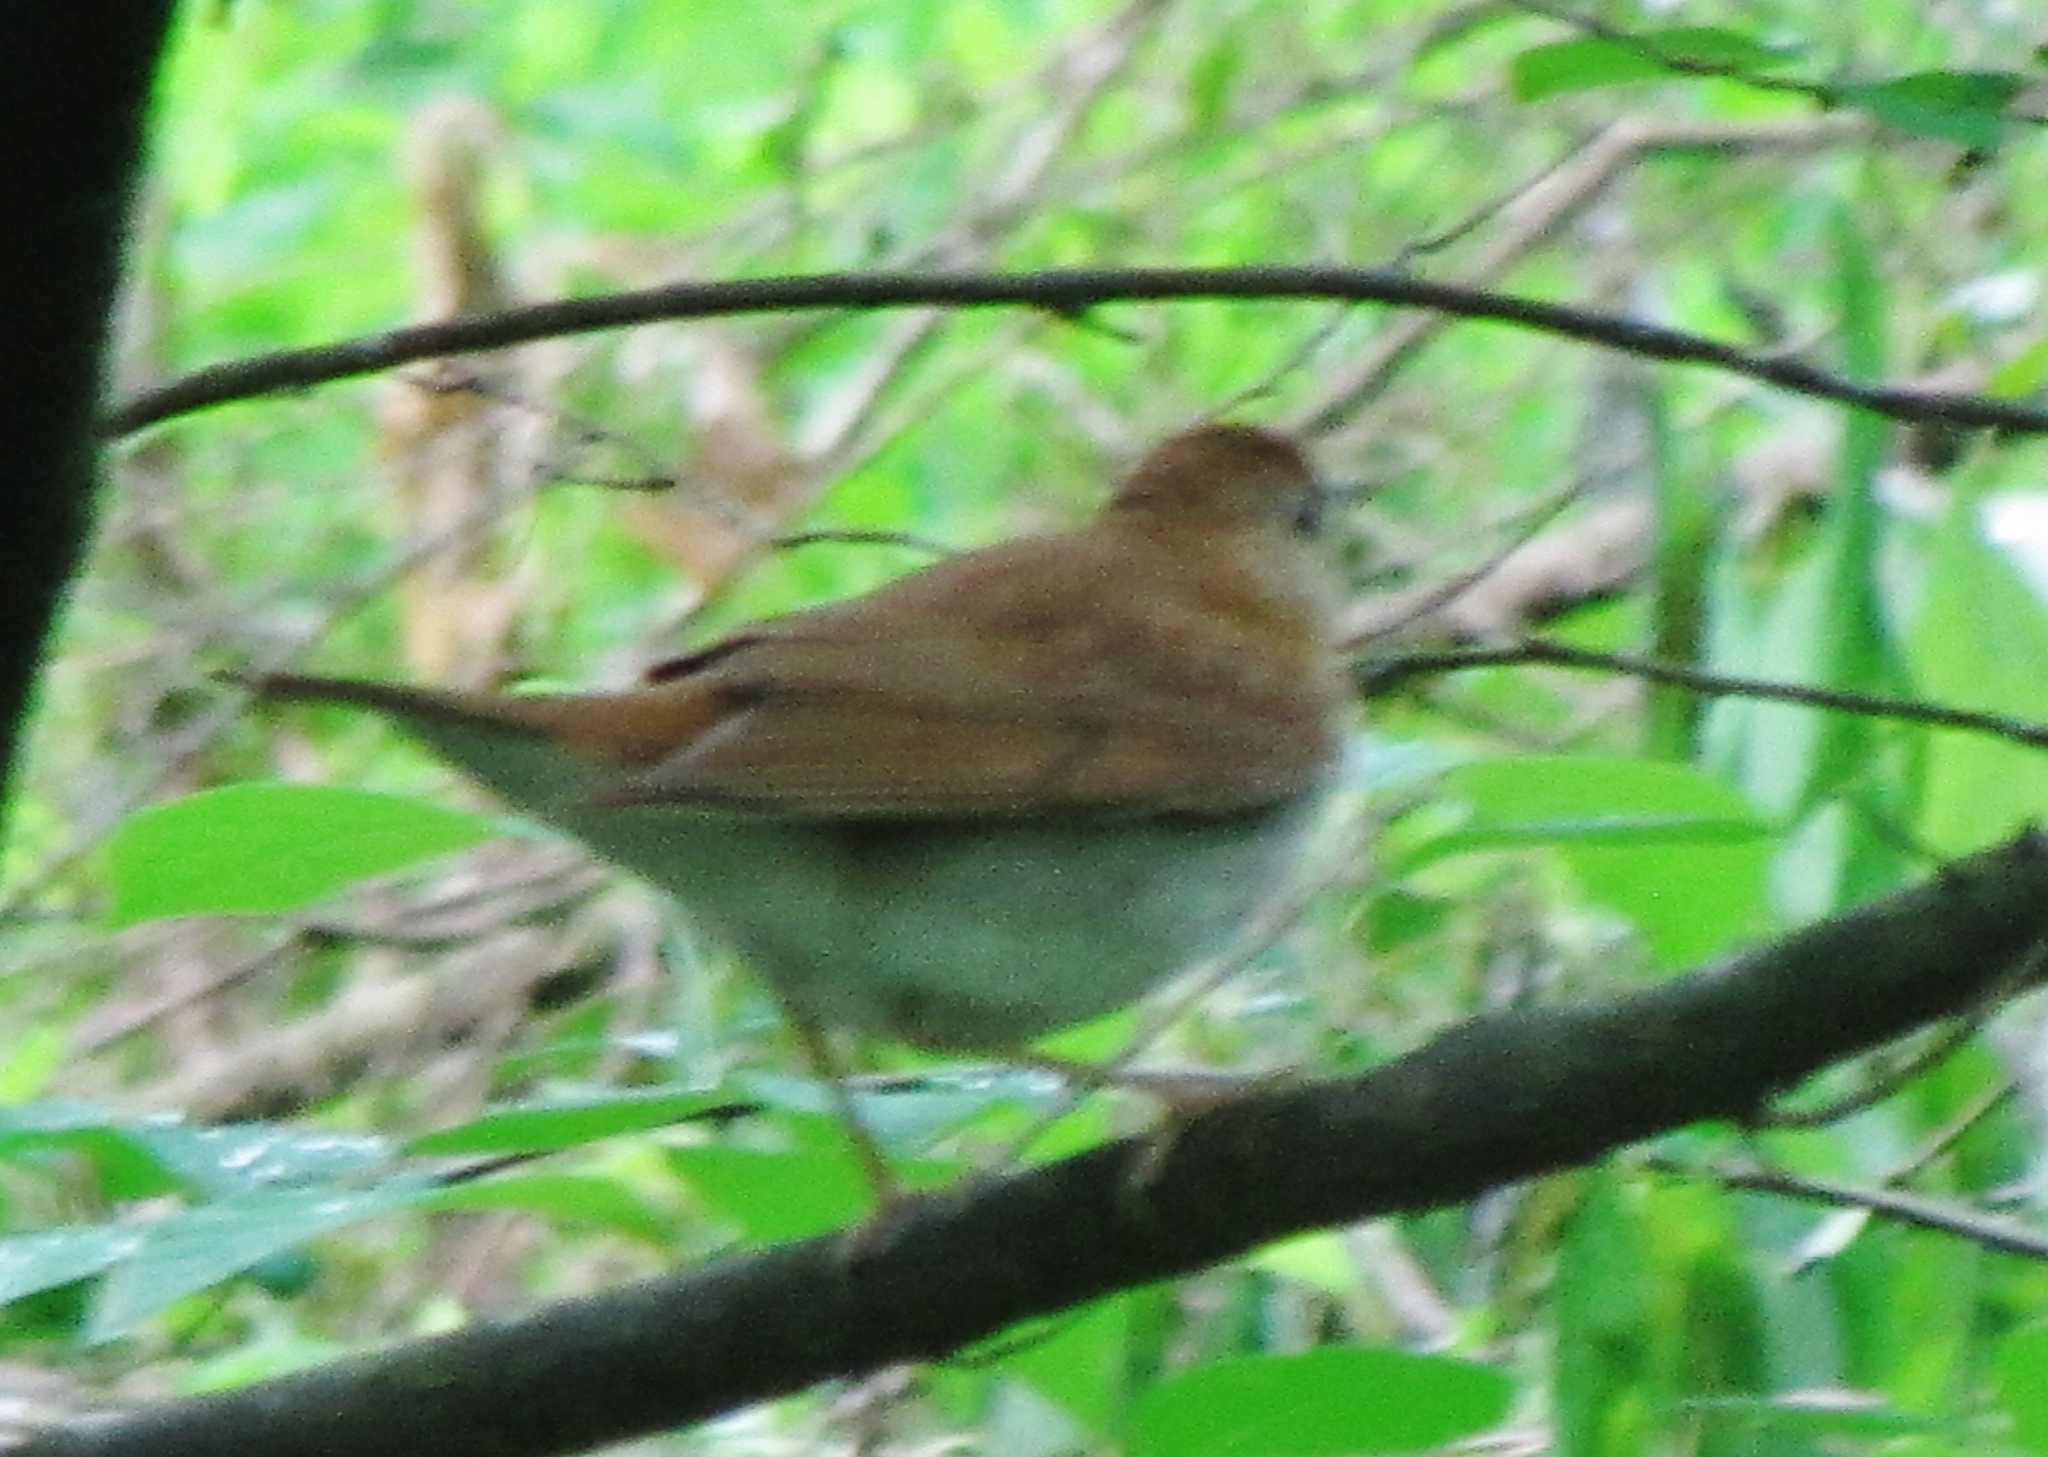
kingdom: Animalia
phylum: Chordata
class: Aves
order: Passeriformes
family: Turdidae
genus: Catharus
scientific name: Catharus fuscescens
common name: Veery
